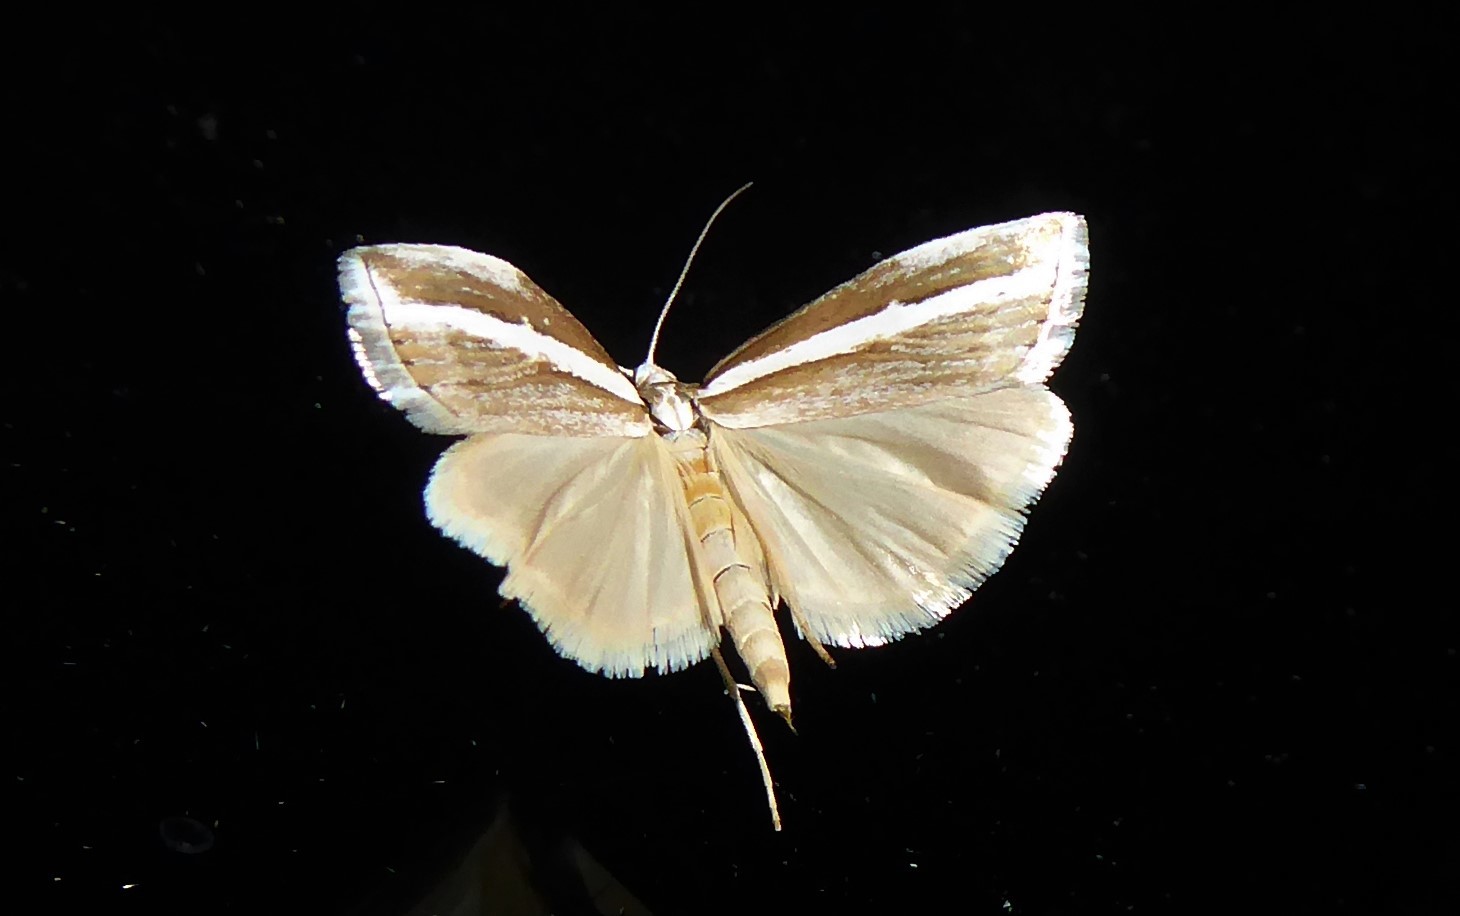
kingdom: Animalia
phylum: Arthropoda
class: Insecta
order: Lepidoptera
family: Crambidae
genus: Orocrambus
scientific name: Orocrambus vittellus
